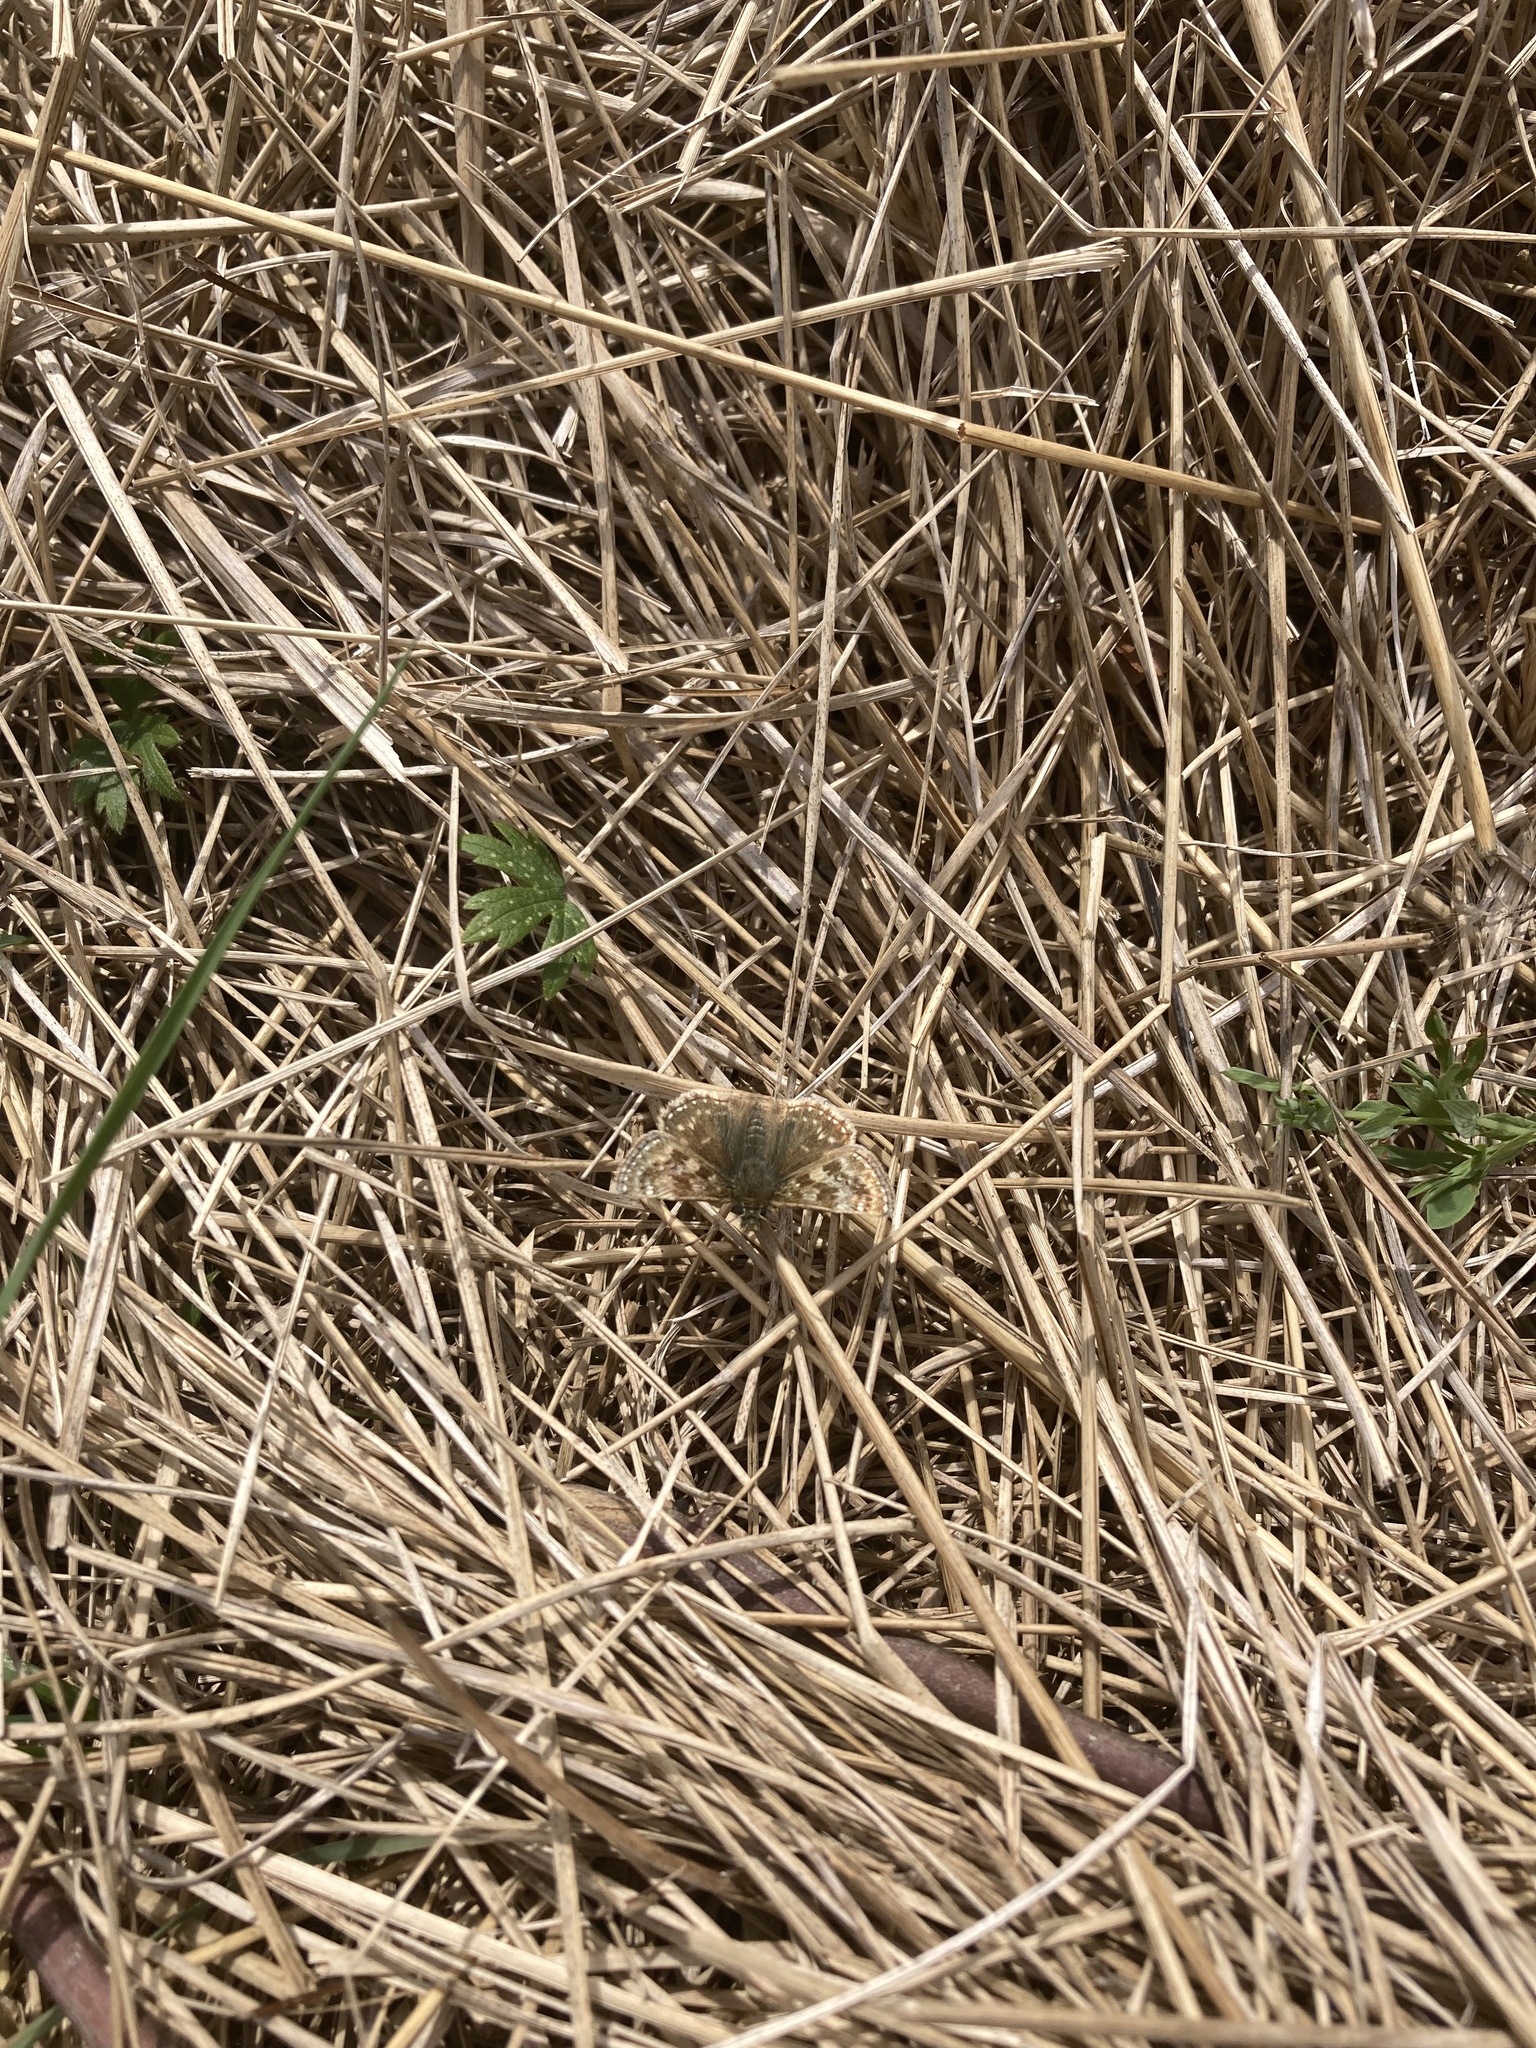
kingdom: Animalia
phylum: Arthropoda
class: Insecta
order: Lepidoptera
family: Hesperiidae
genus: Erynnis
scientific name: Erynnis tages
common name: Dingy skipper
